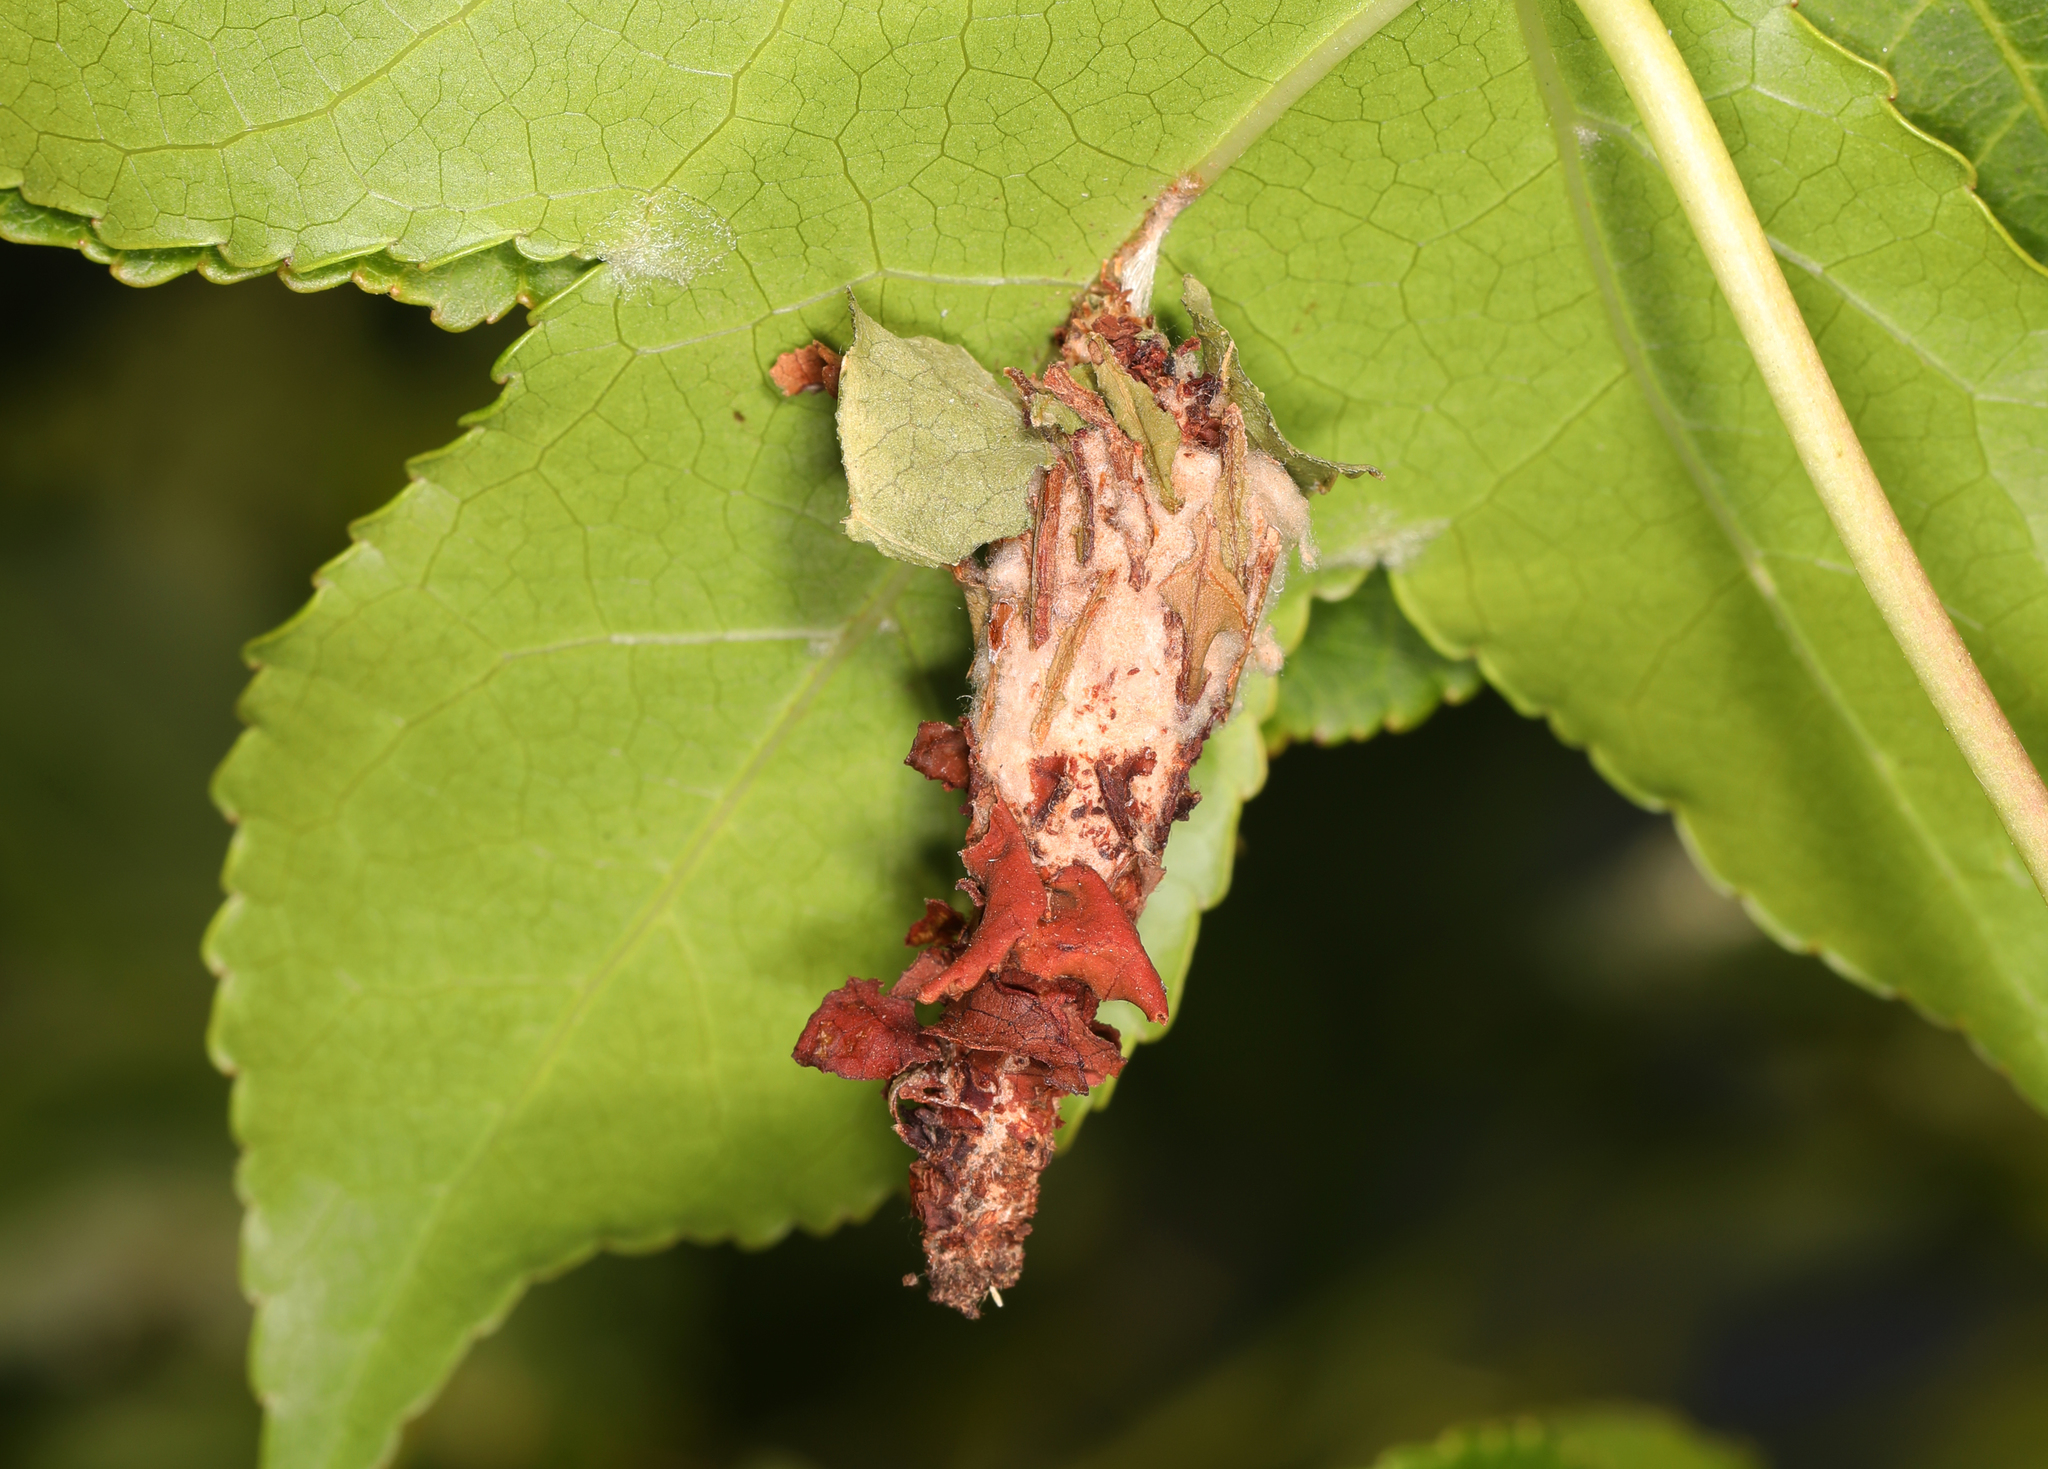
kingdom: Animalia
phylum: Arthropoda
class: Insecta
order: Lepidoptera
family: Psychidae
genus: Thyridopteryx
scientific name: Thyridopteryx ephemeraeformis
